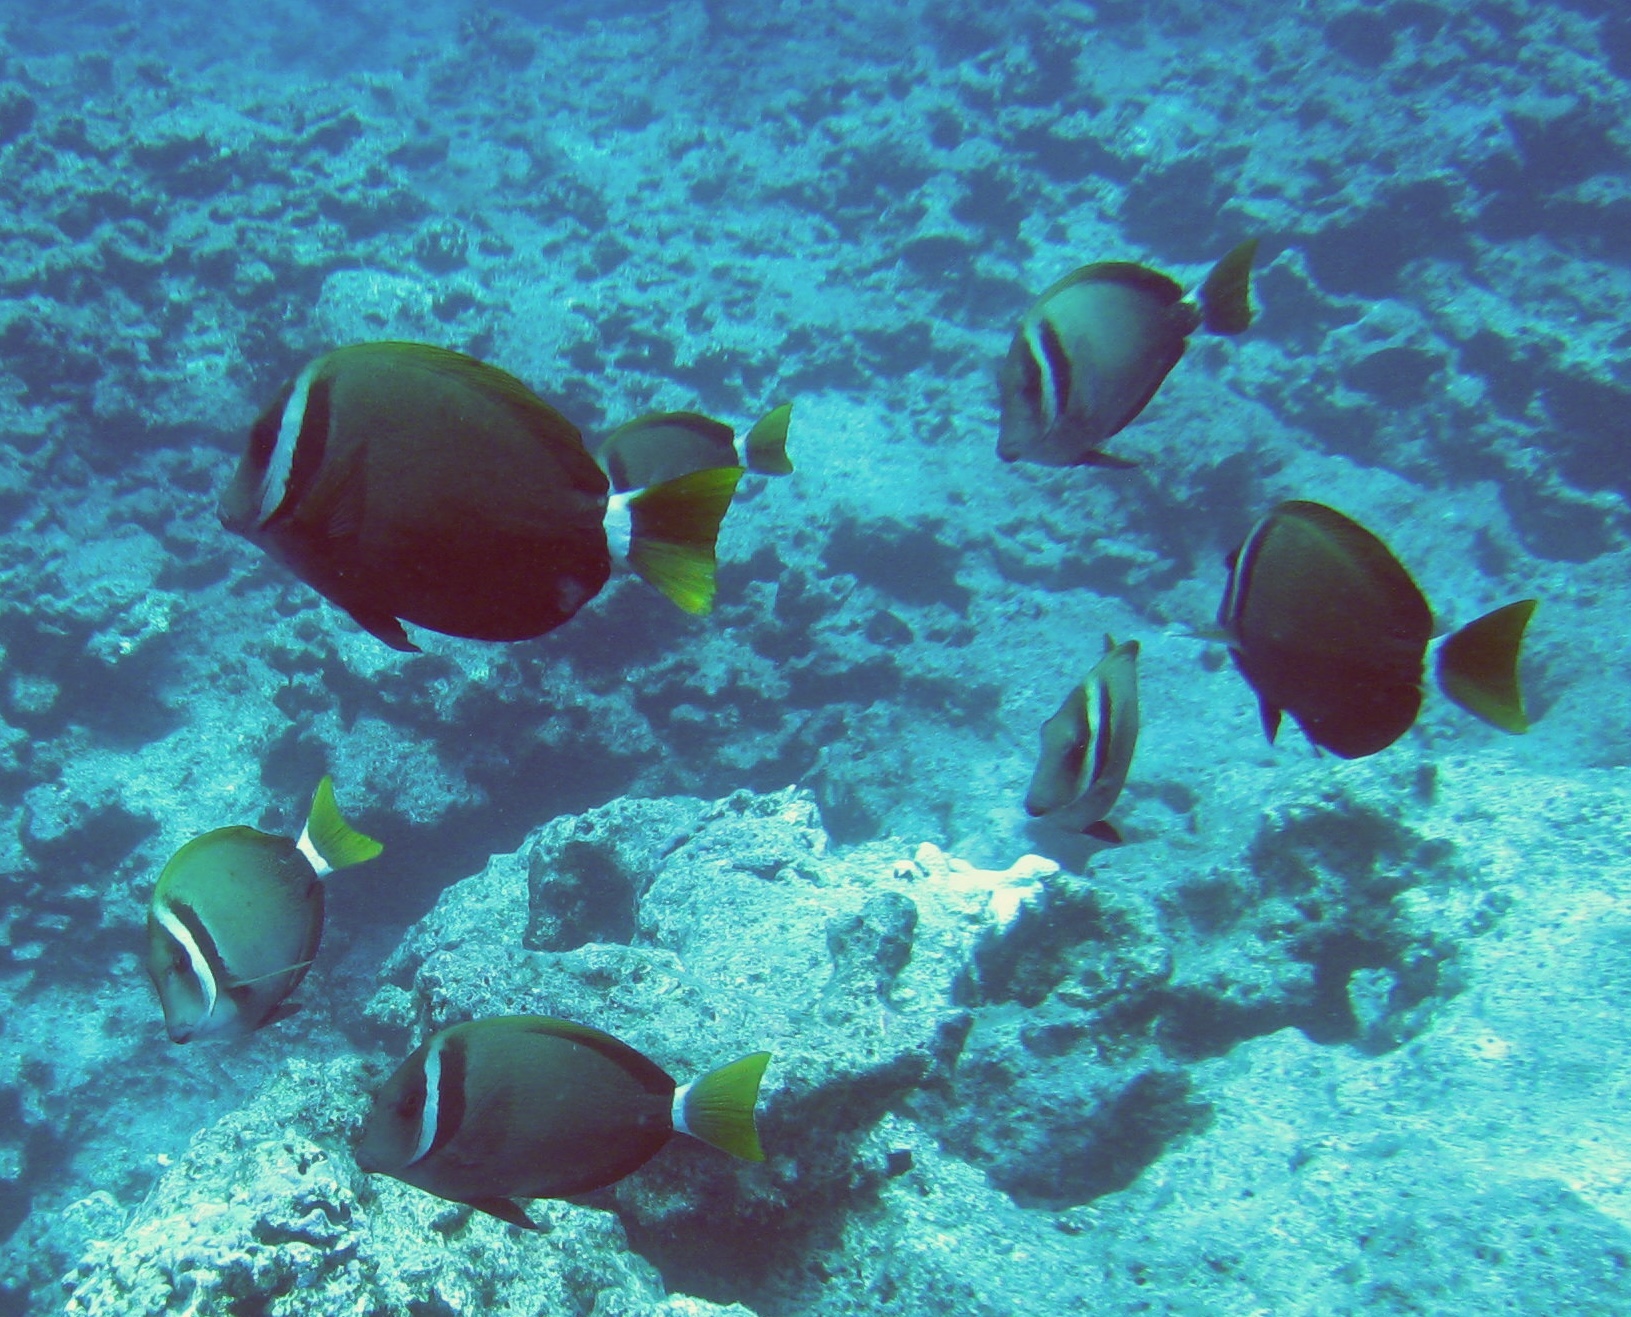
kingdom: Animalia
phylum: Chordata
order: Perciformes
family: Acanthuridae
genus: Acanthurus
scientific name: Acanthurus leucopareius
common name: Head-band surgeonfish
